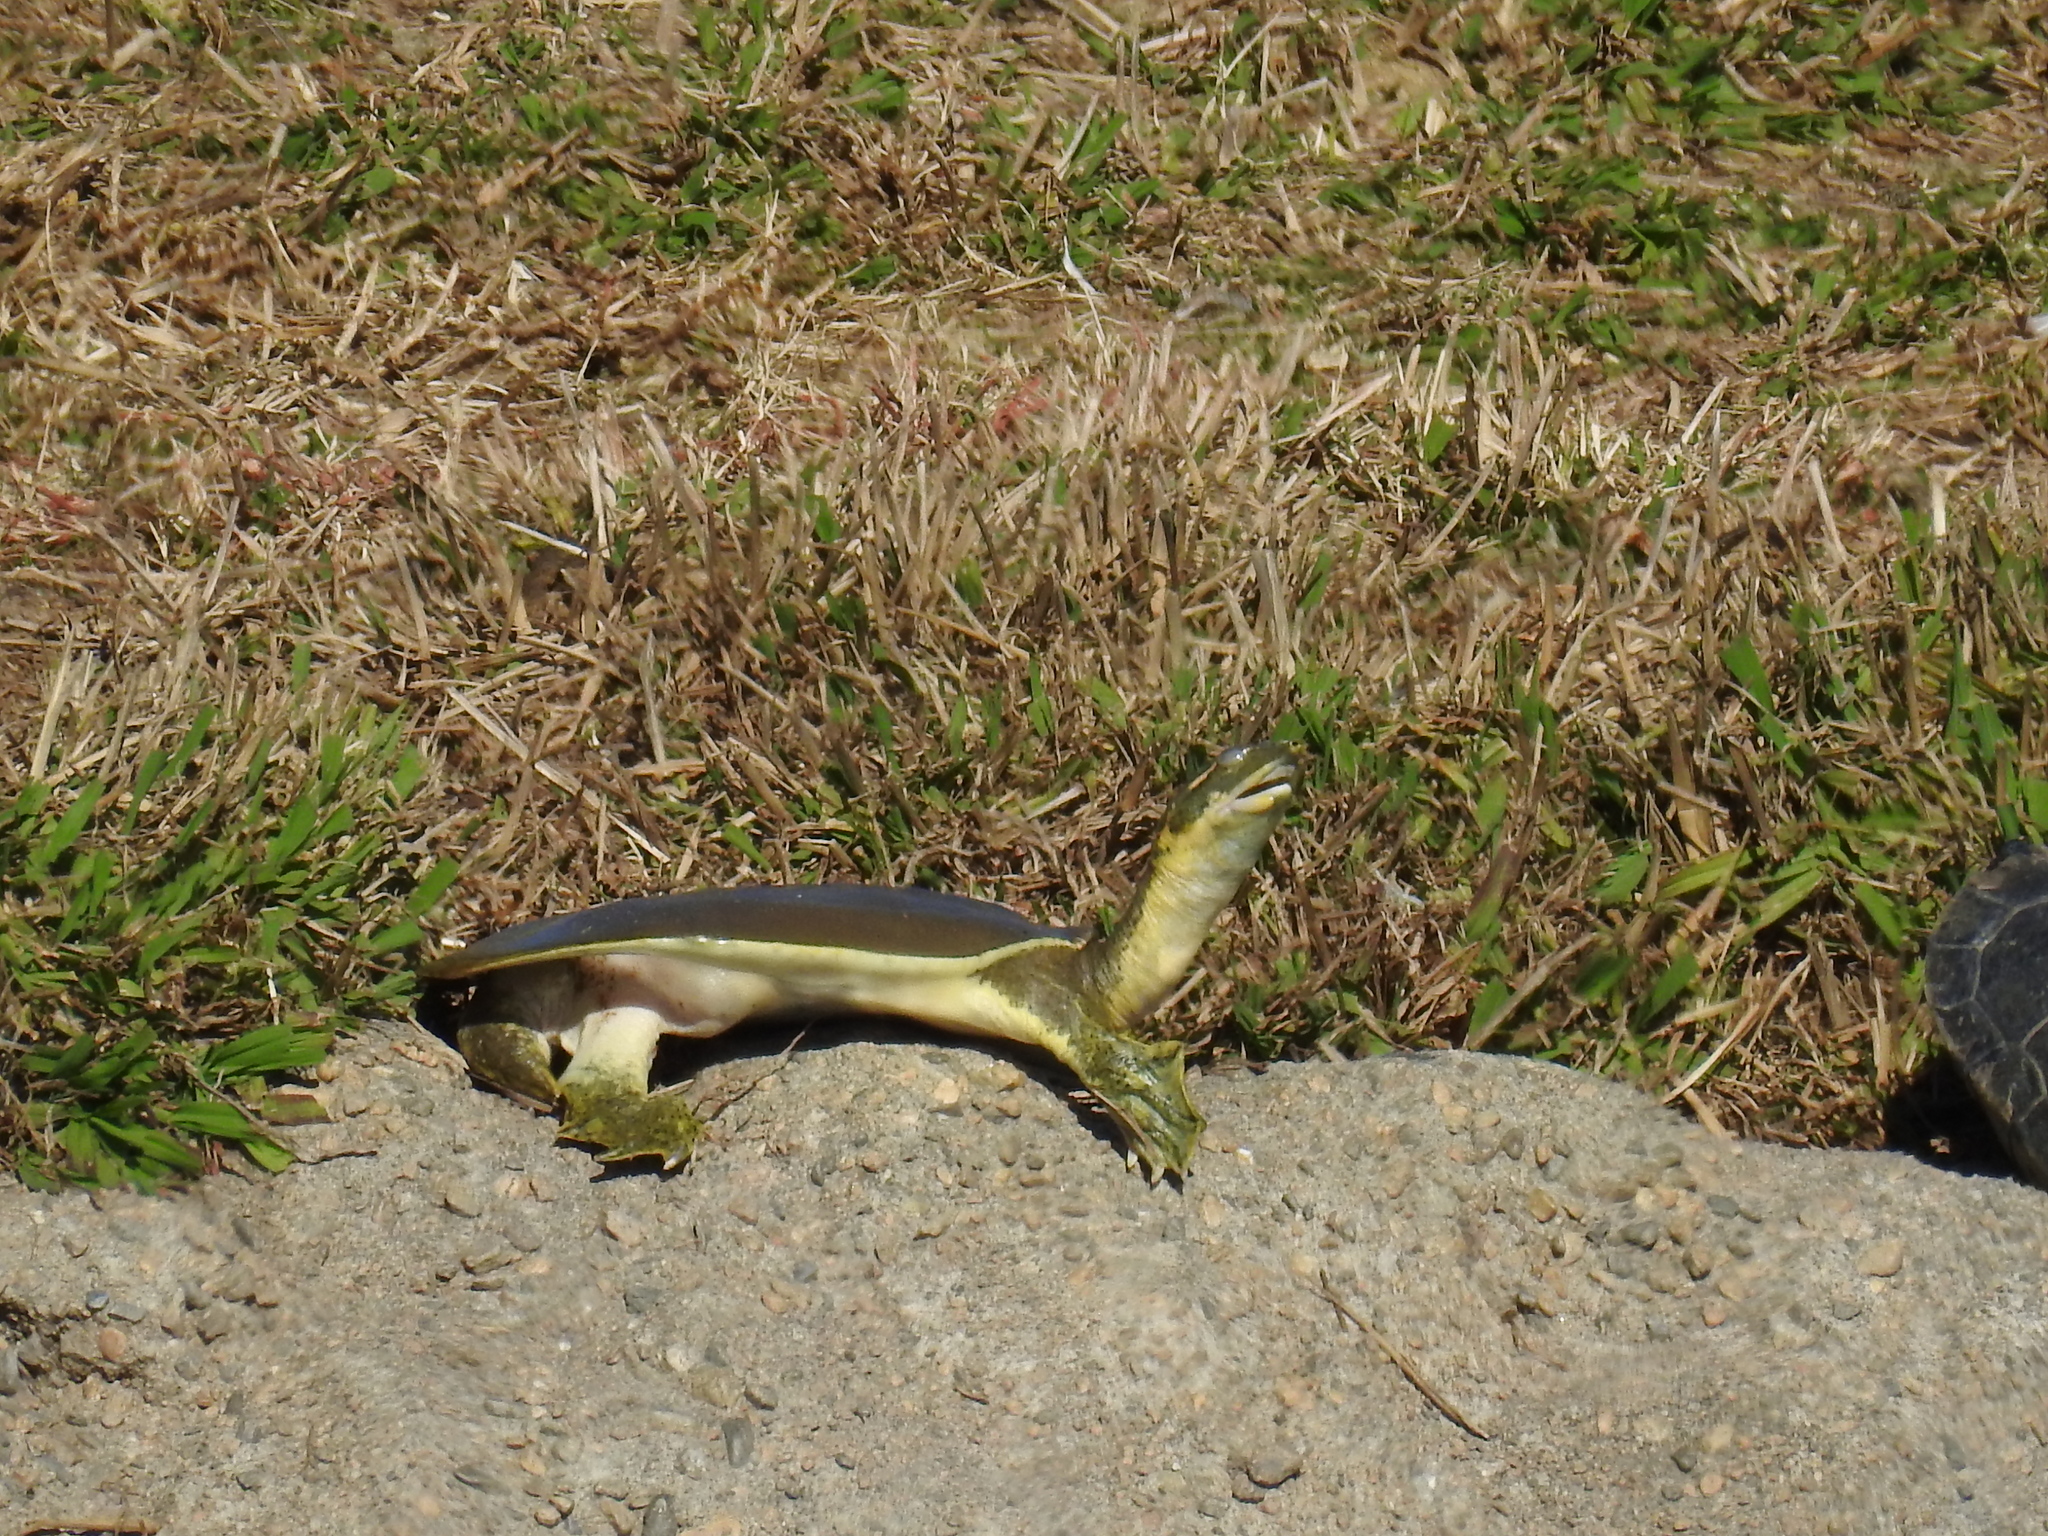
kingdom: Animalia
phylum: Chordata
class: Testudines
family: Trionychidae
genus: Apalone
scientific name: Apalone spinifera
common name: Spiny softshell turtle
